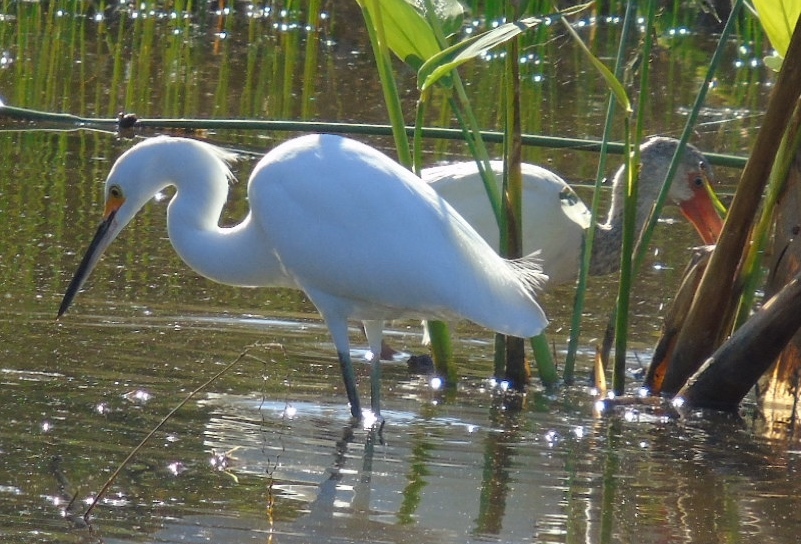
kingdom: Animalia
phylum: Chordata
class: Aves
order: Pelecaniformes
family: Ardeidae
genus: Egretta
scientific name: Egretta thula
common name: Snowy egret
